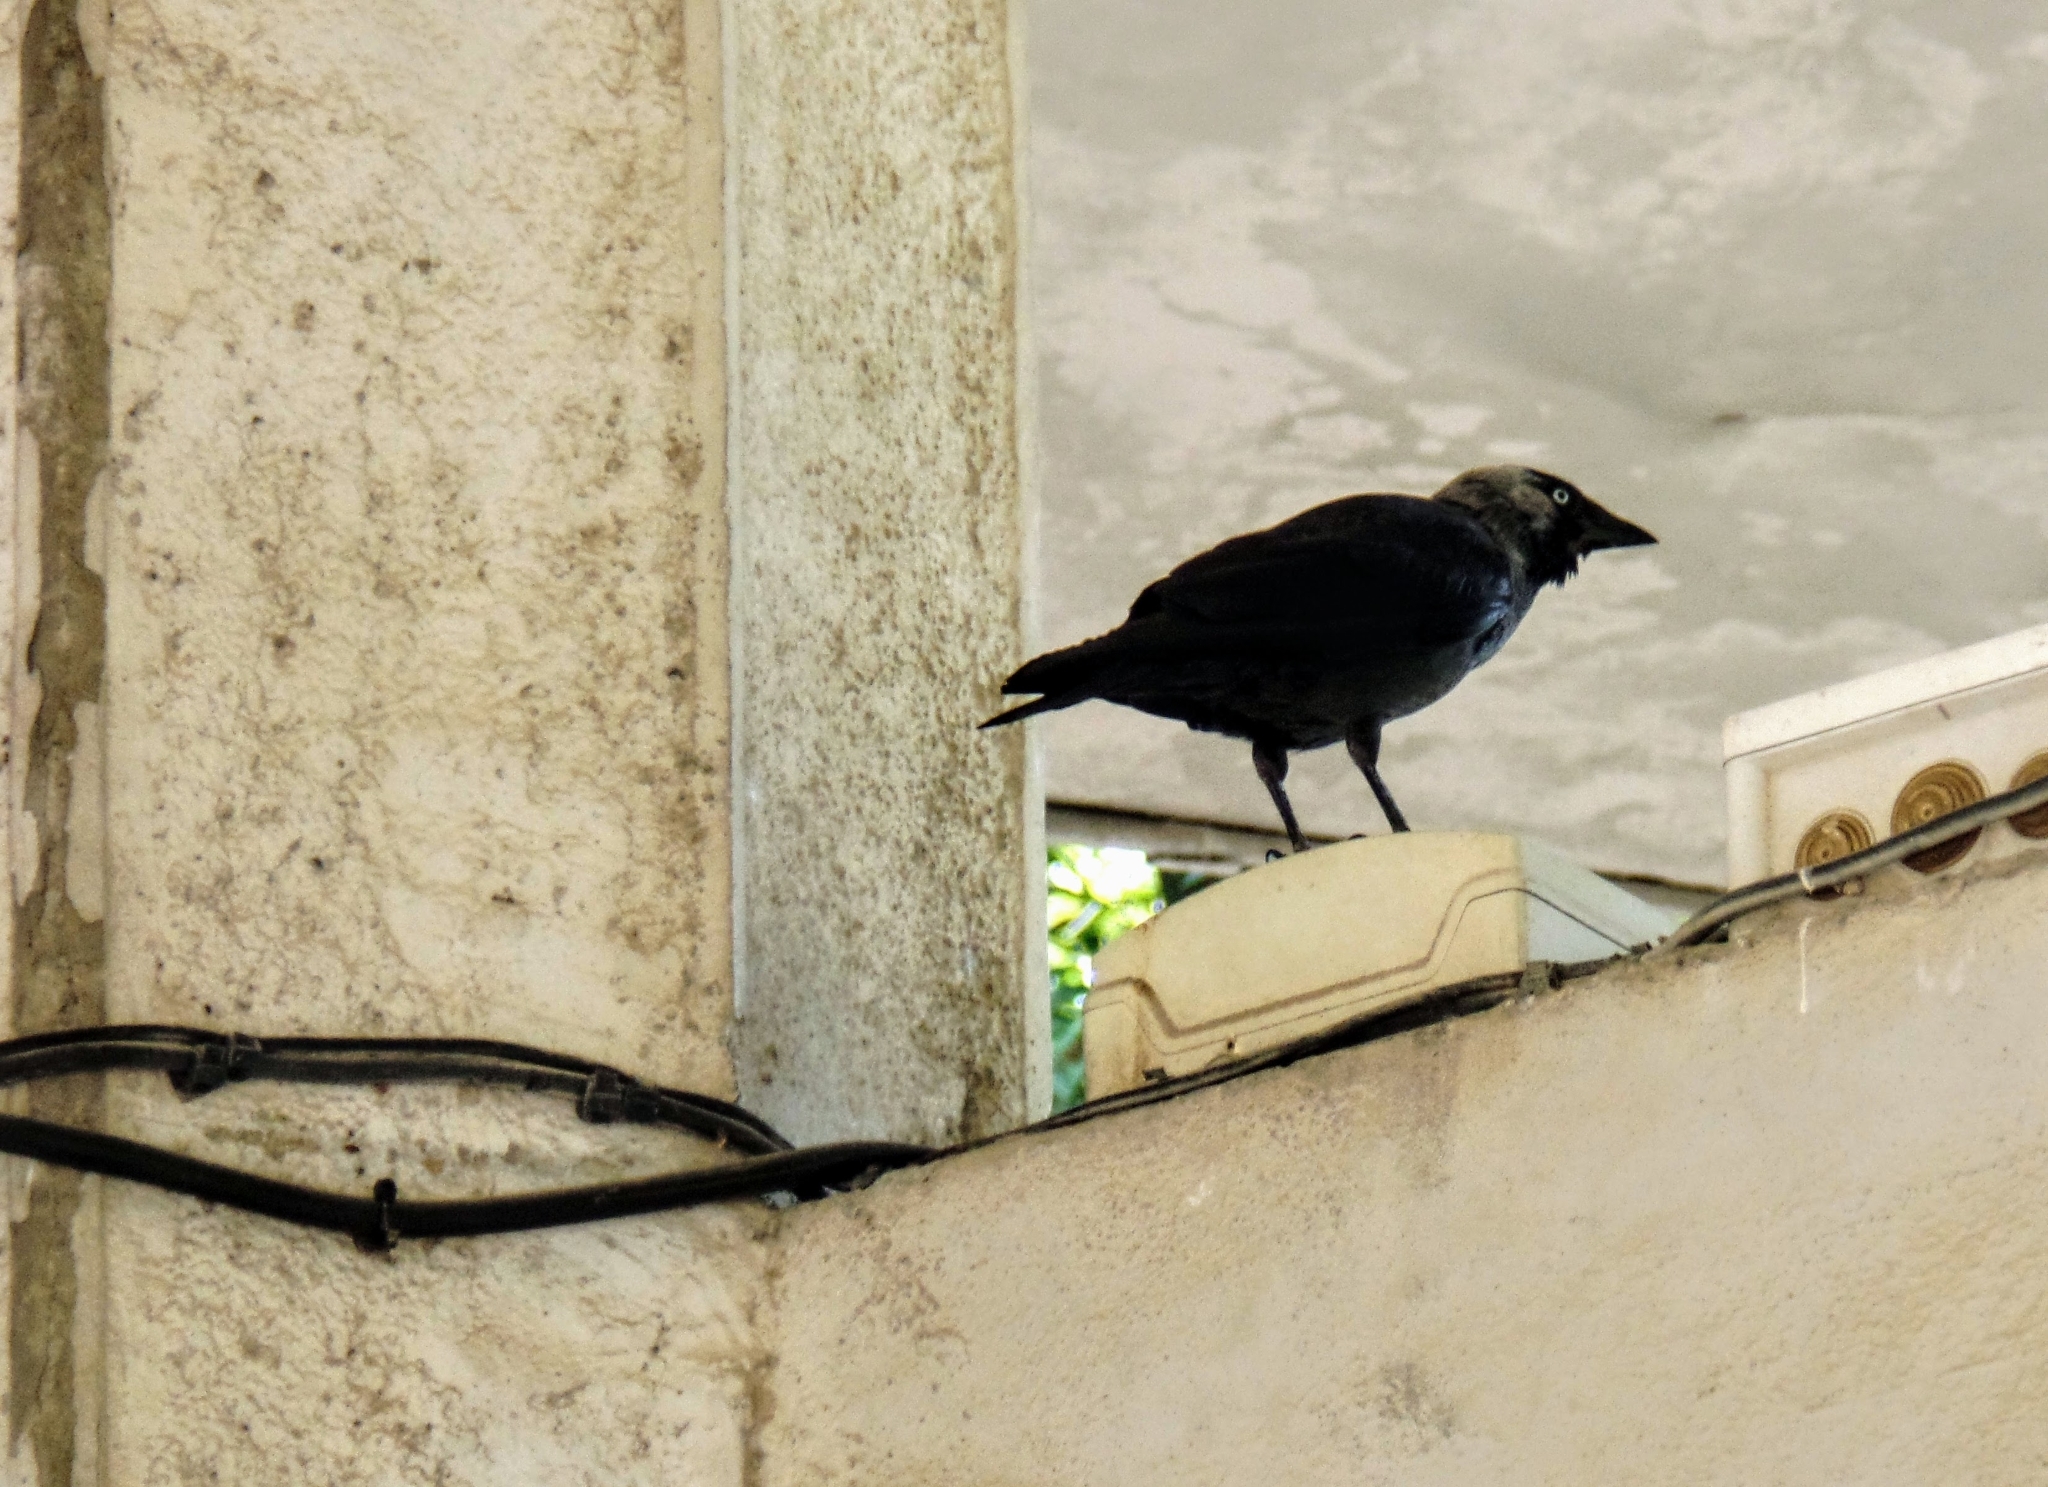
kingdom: Animalia
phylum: Chordata
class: Aves
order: Passeriformes
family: Corvidae
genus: Coloeus
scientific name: Coloeus monedula
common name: Western jackdaw
